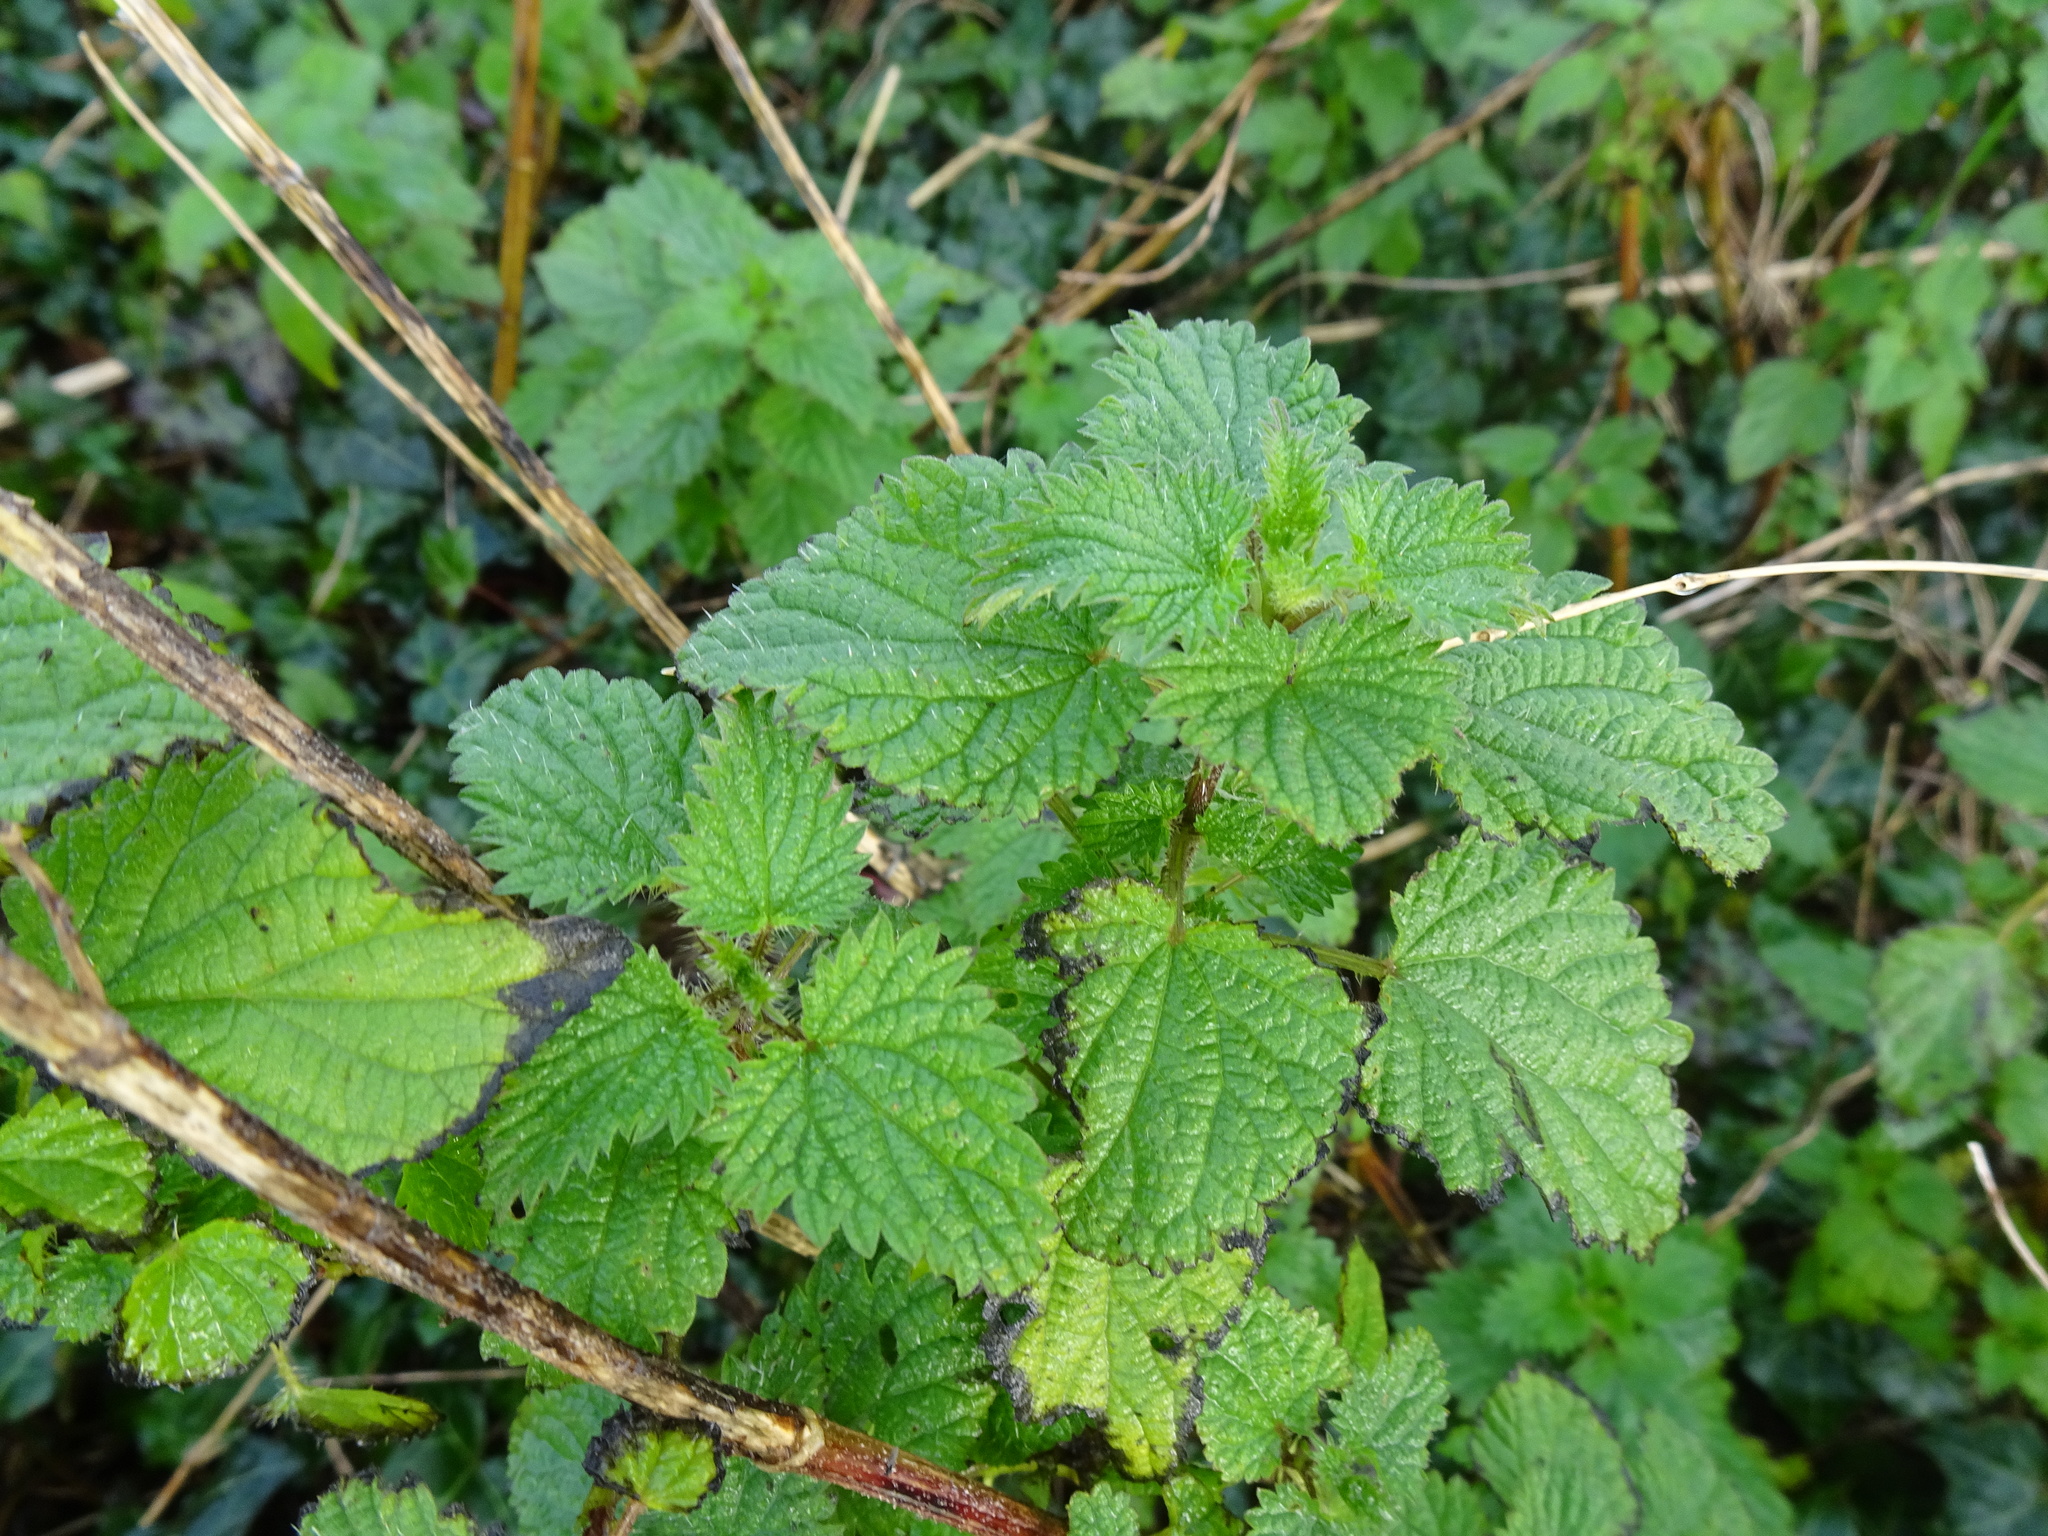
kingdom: Plantae
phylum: Tracheophyta
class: Magnoliopsida
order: Rosales
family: Urticaceae
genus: Urtica
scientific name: Urtica dioica
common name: Common nettle
